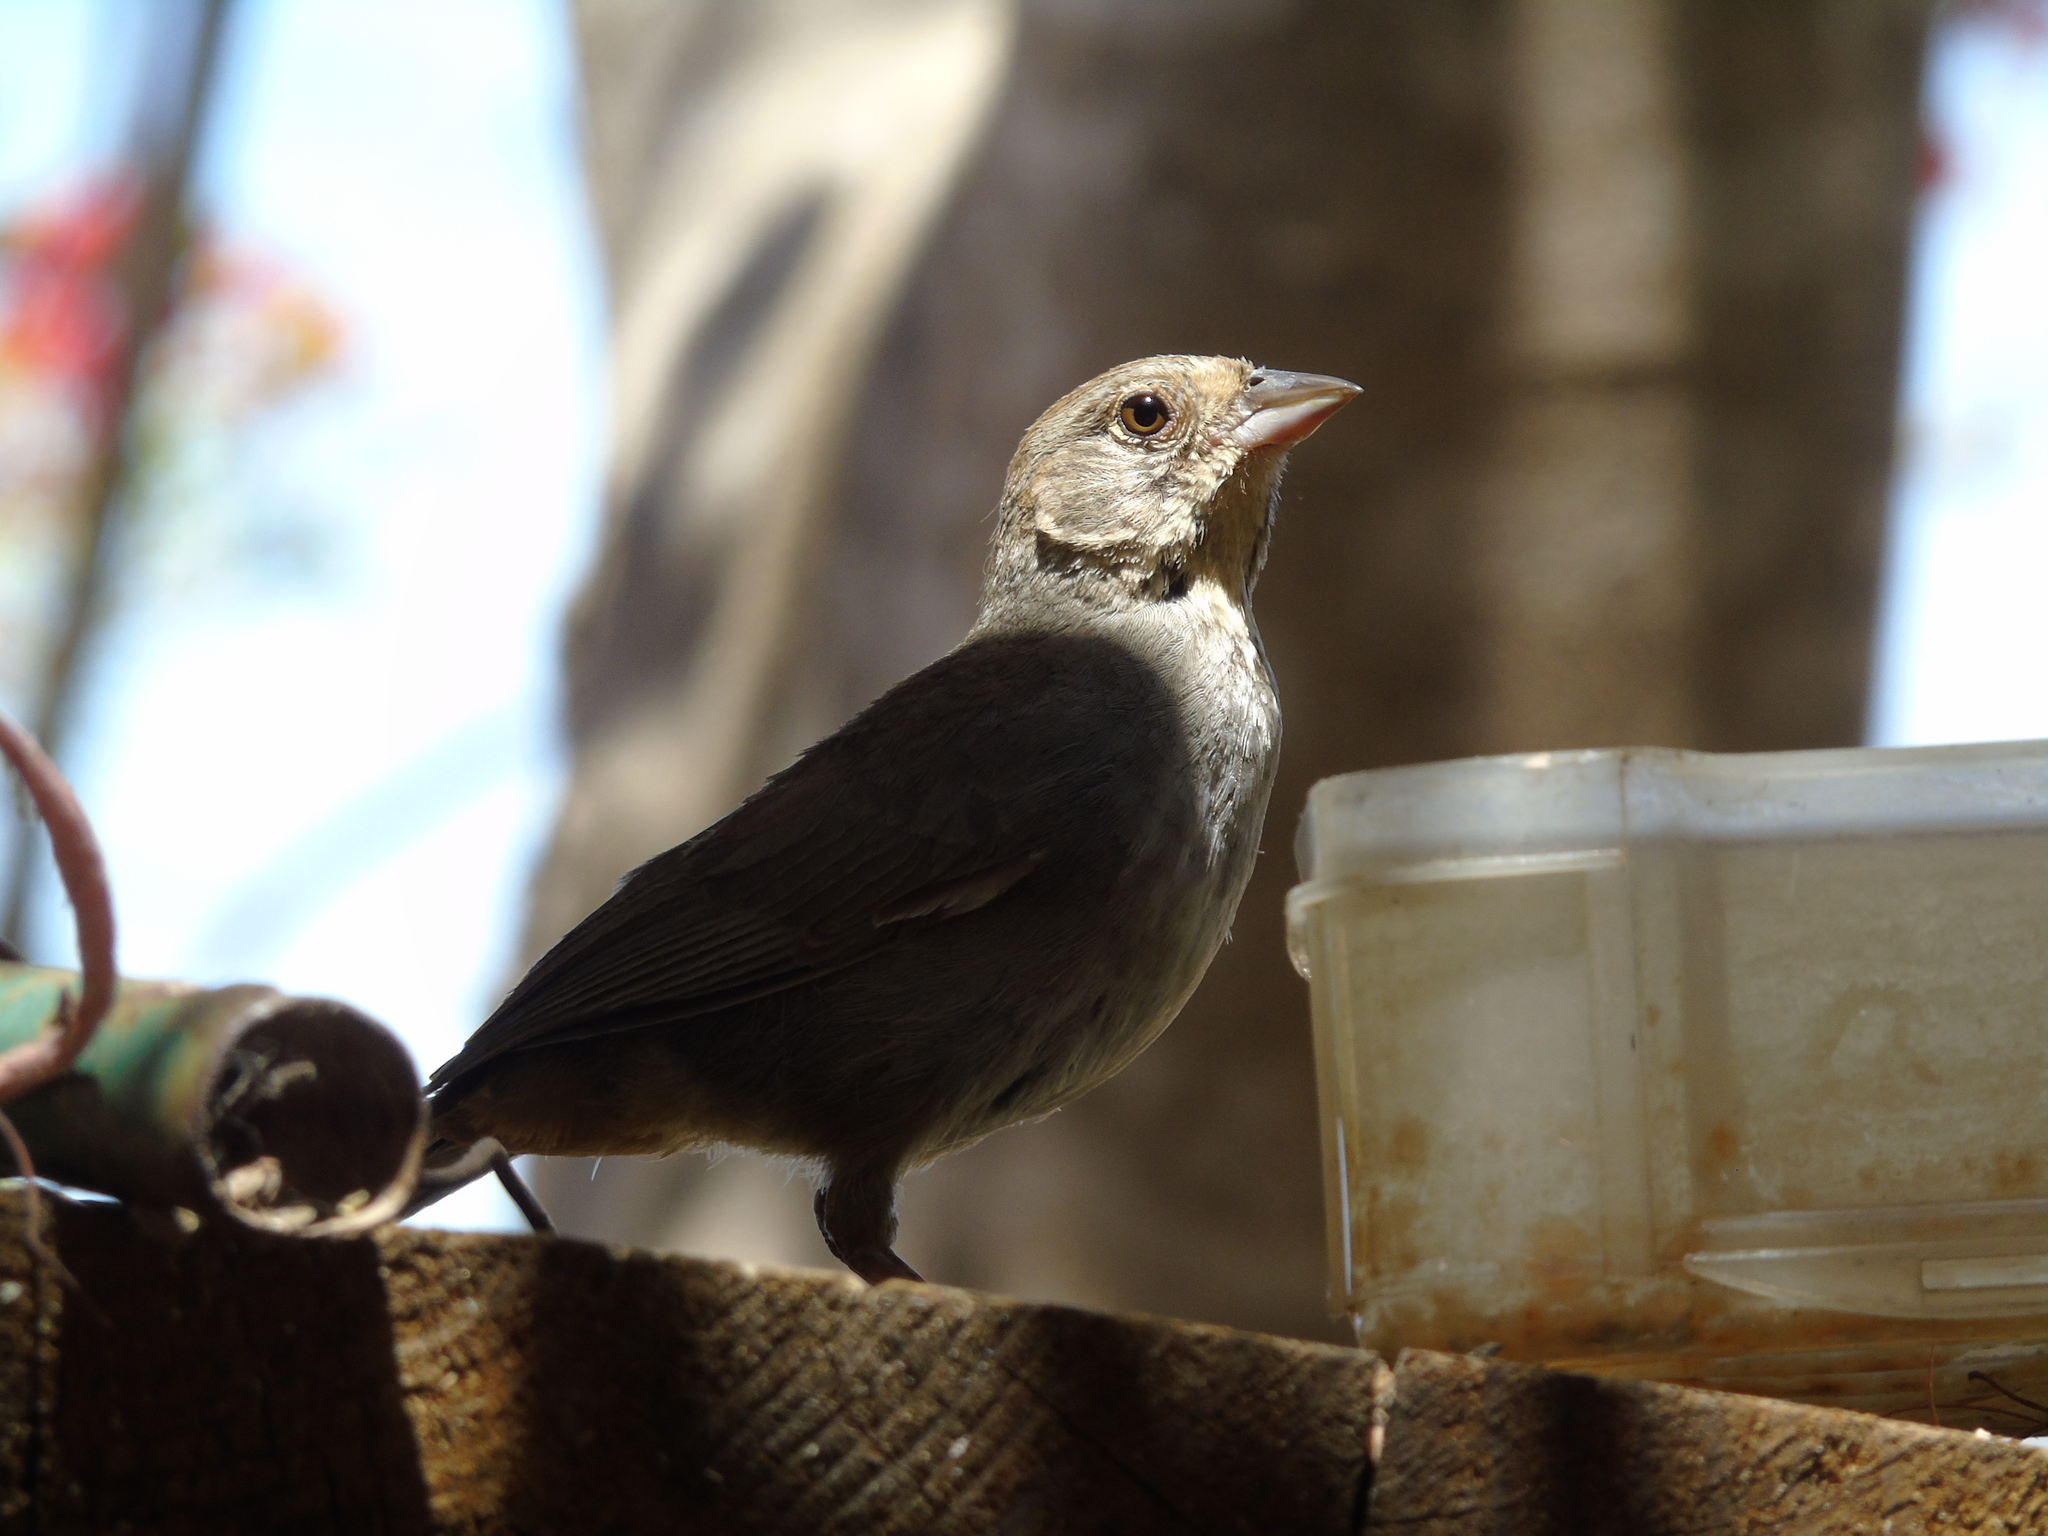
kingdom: Animalia
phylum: Chordata
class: Aves
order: Passeriformes
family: Passerellidae
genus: Melozone
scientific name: Melozone crissalis
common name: California towhee
